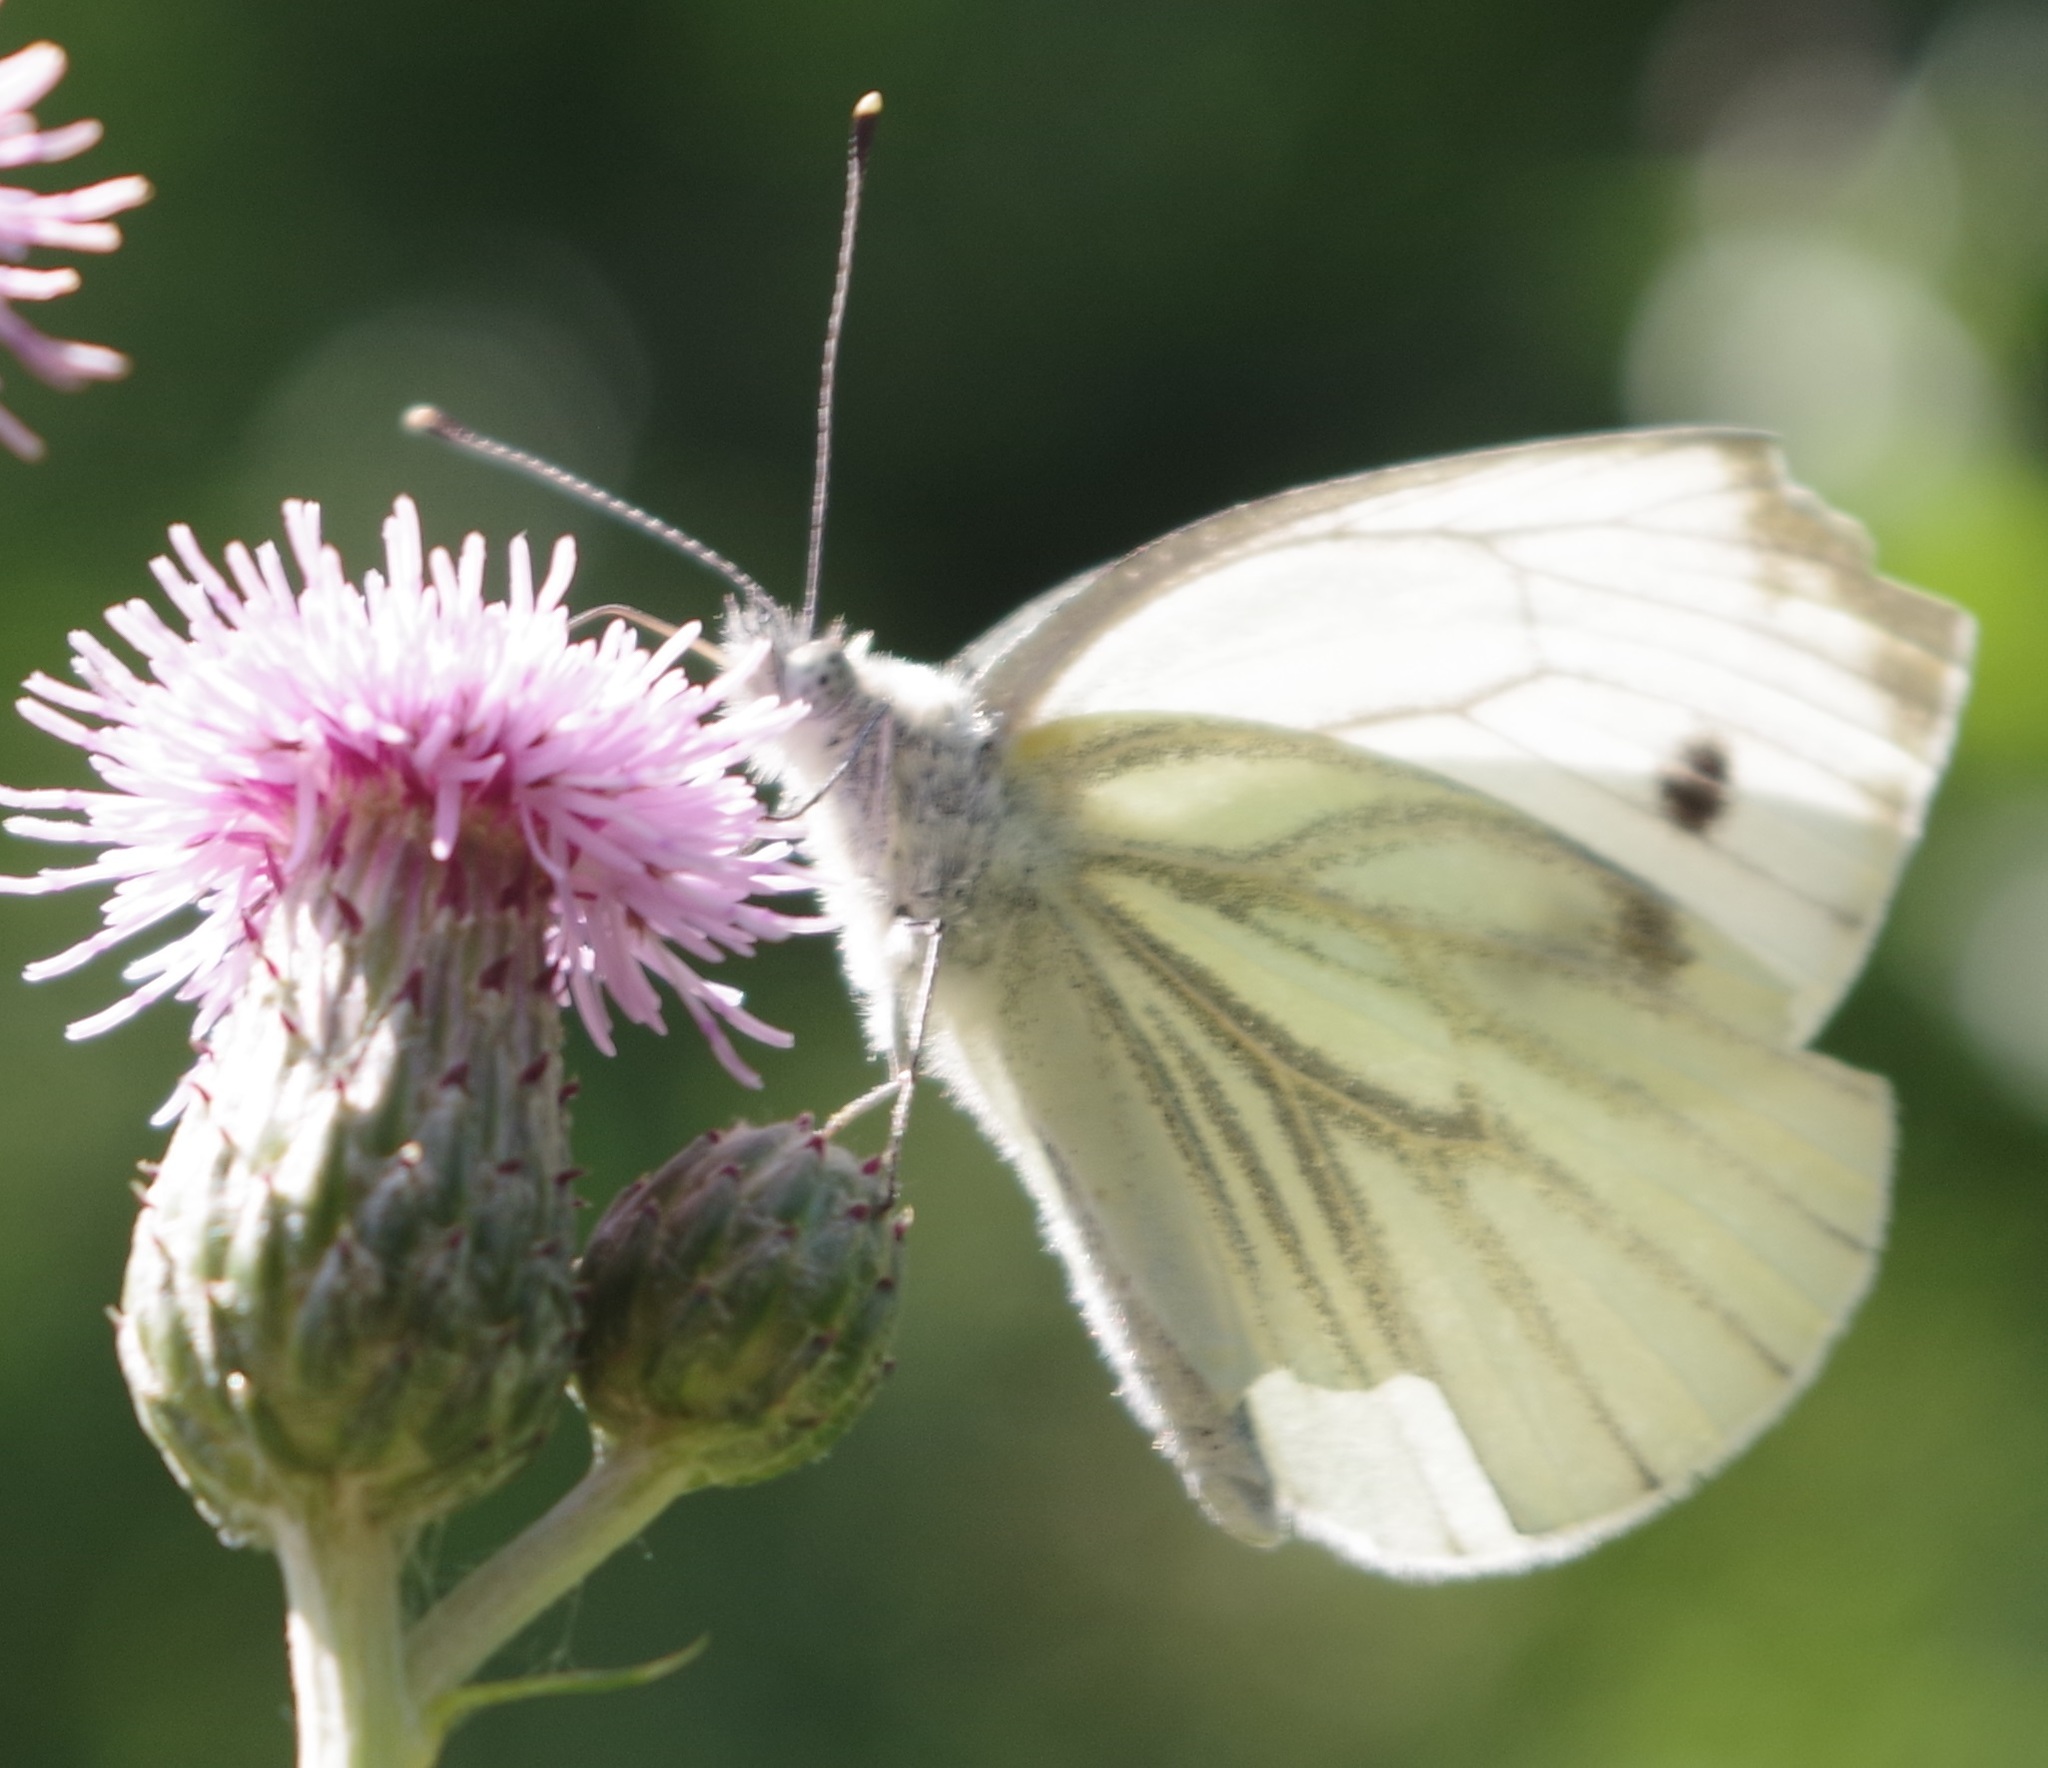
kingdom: Animalia
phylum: Arthropoda
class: Insecta
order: Lepidoptera
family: Pieridae
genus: Pieris
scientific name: Pieris napi
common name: Green-veined white
